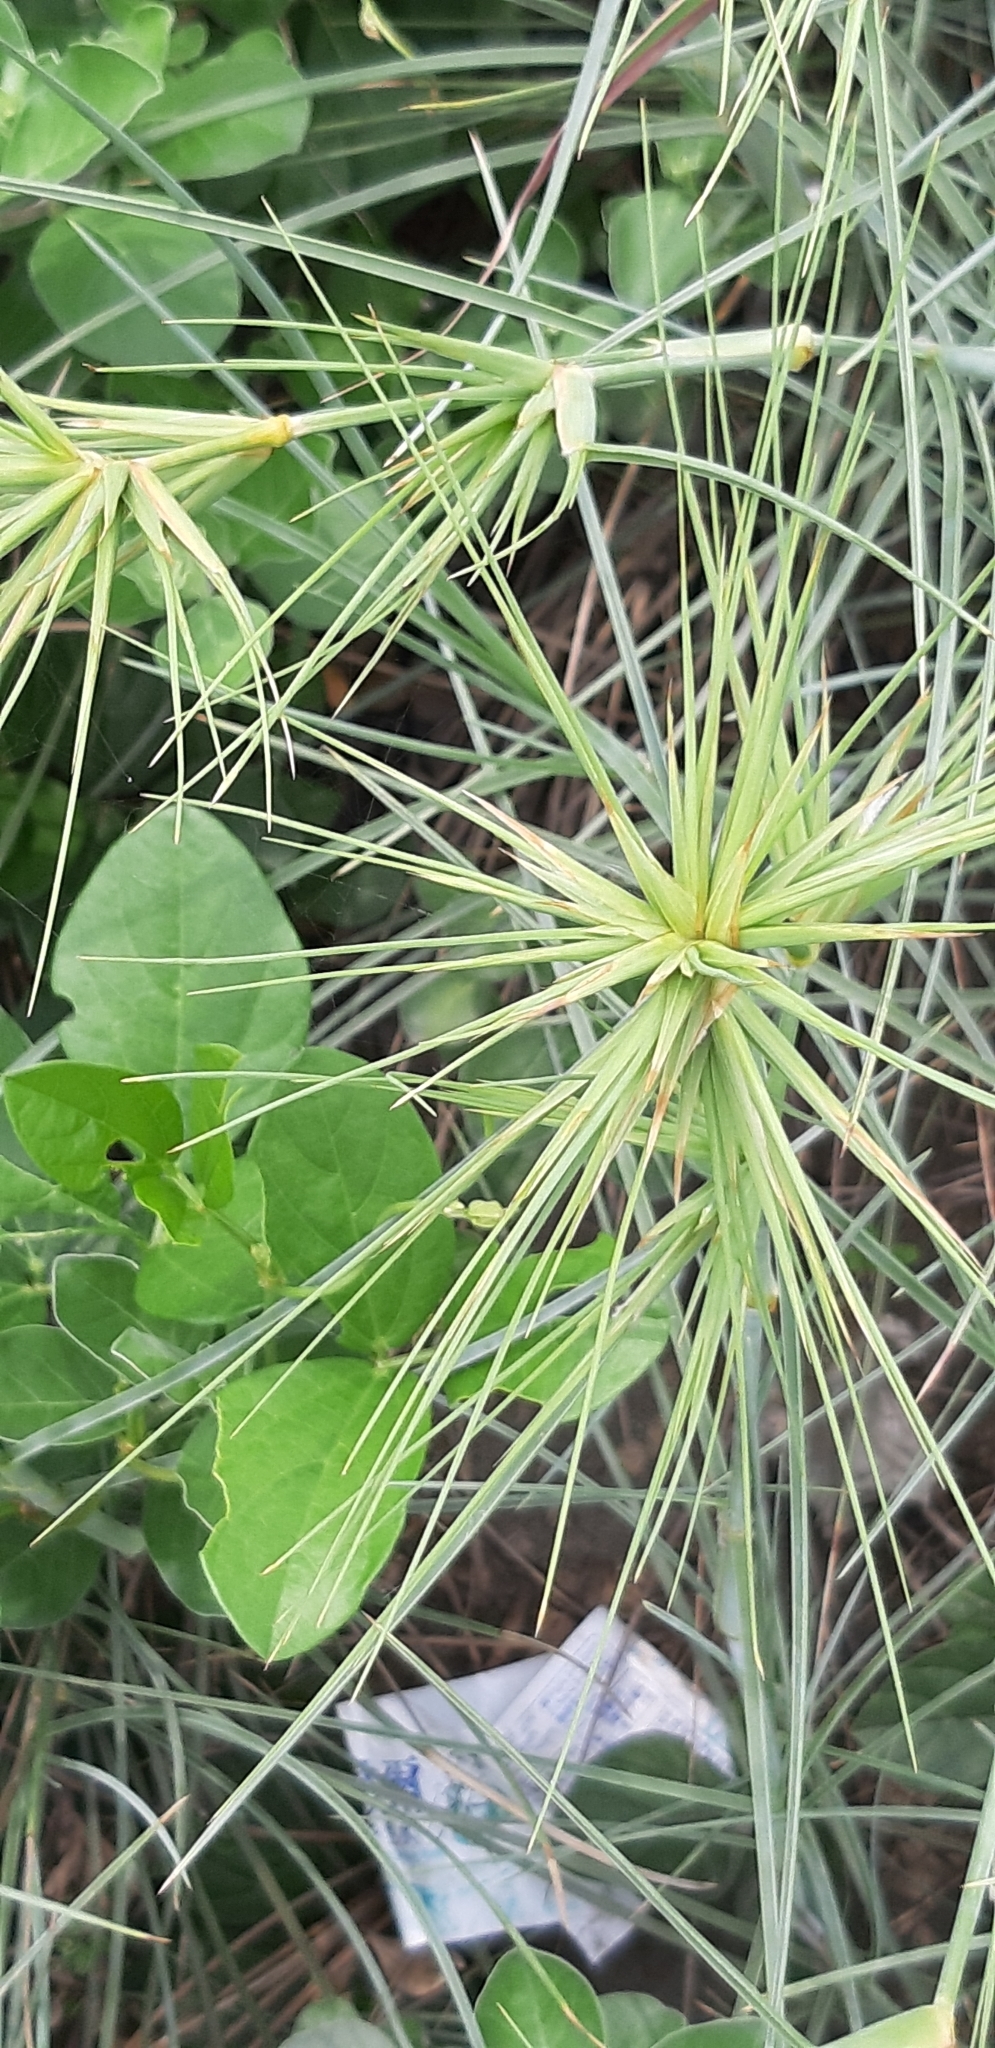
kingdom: Plantae
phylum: Tracheophyta
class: Liliopsida
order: Poales
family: Poaceae
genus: Spinifex
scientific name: Spinifex littoreus
